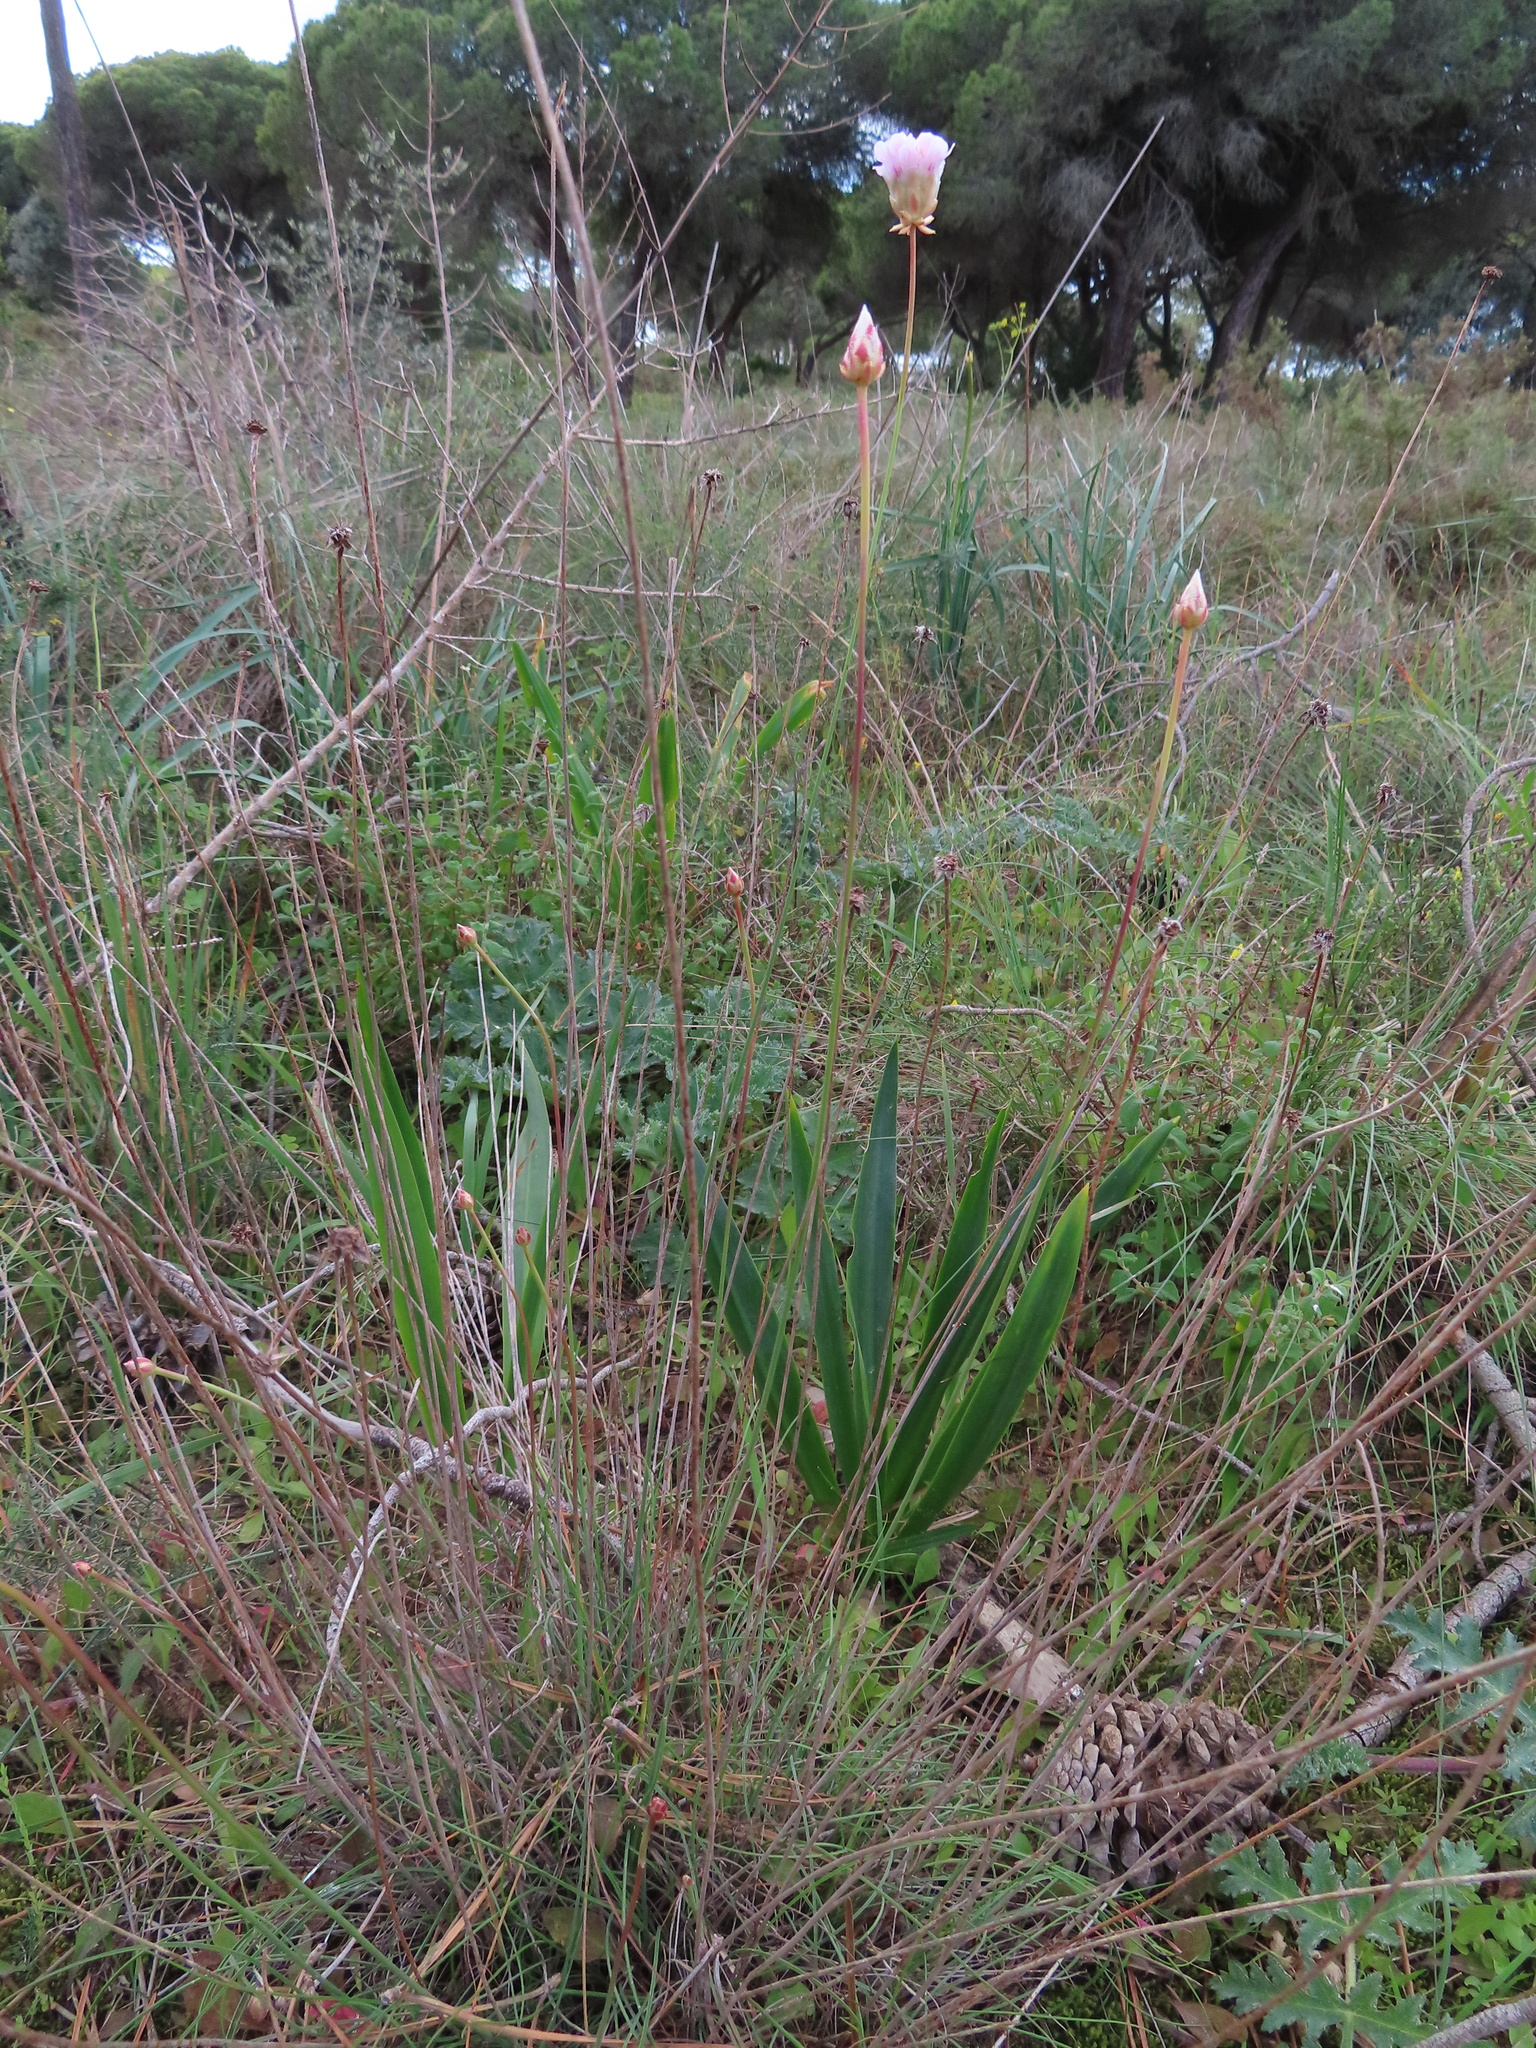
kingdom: Plantae
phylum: Tracheophyta
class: Magnoliopsida
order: Caryophyllales
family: Plumbaginaceae
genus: Armeria
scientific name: Armeria macrophylla
